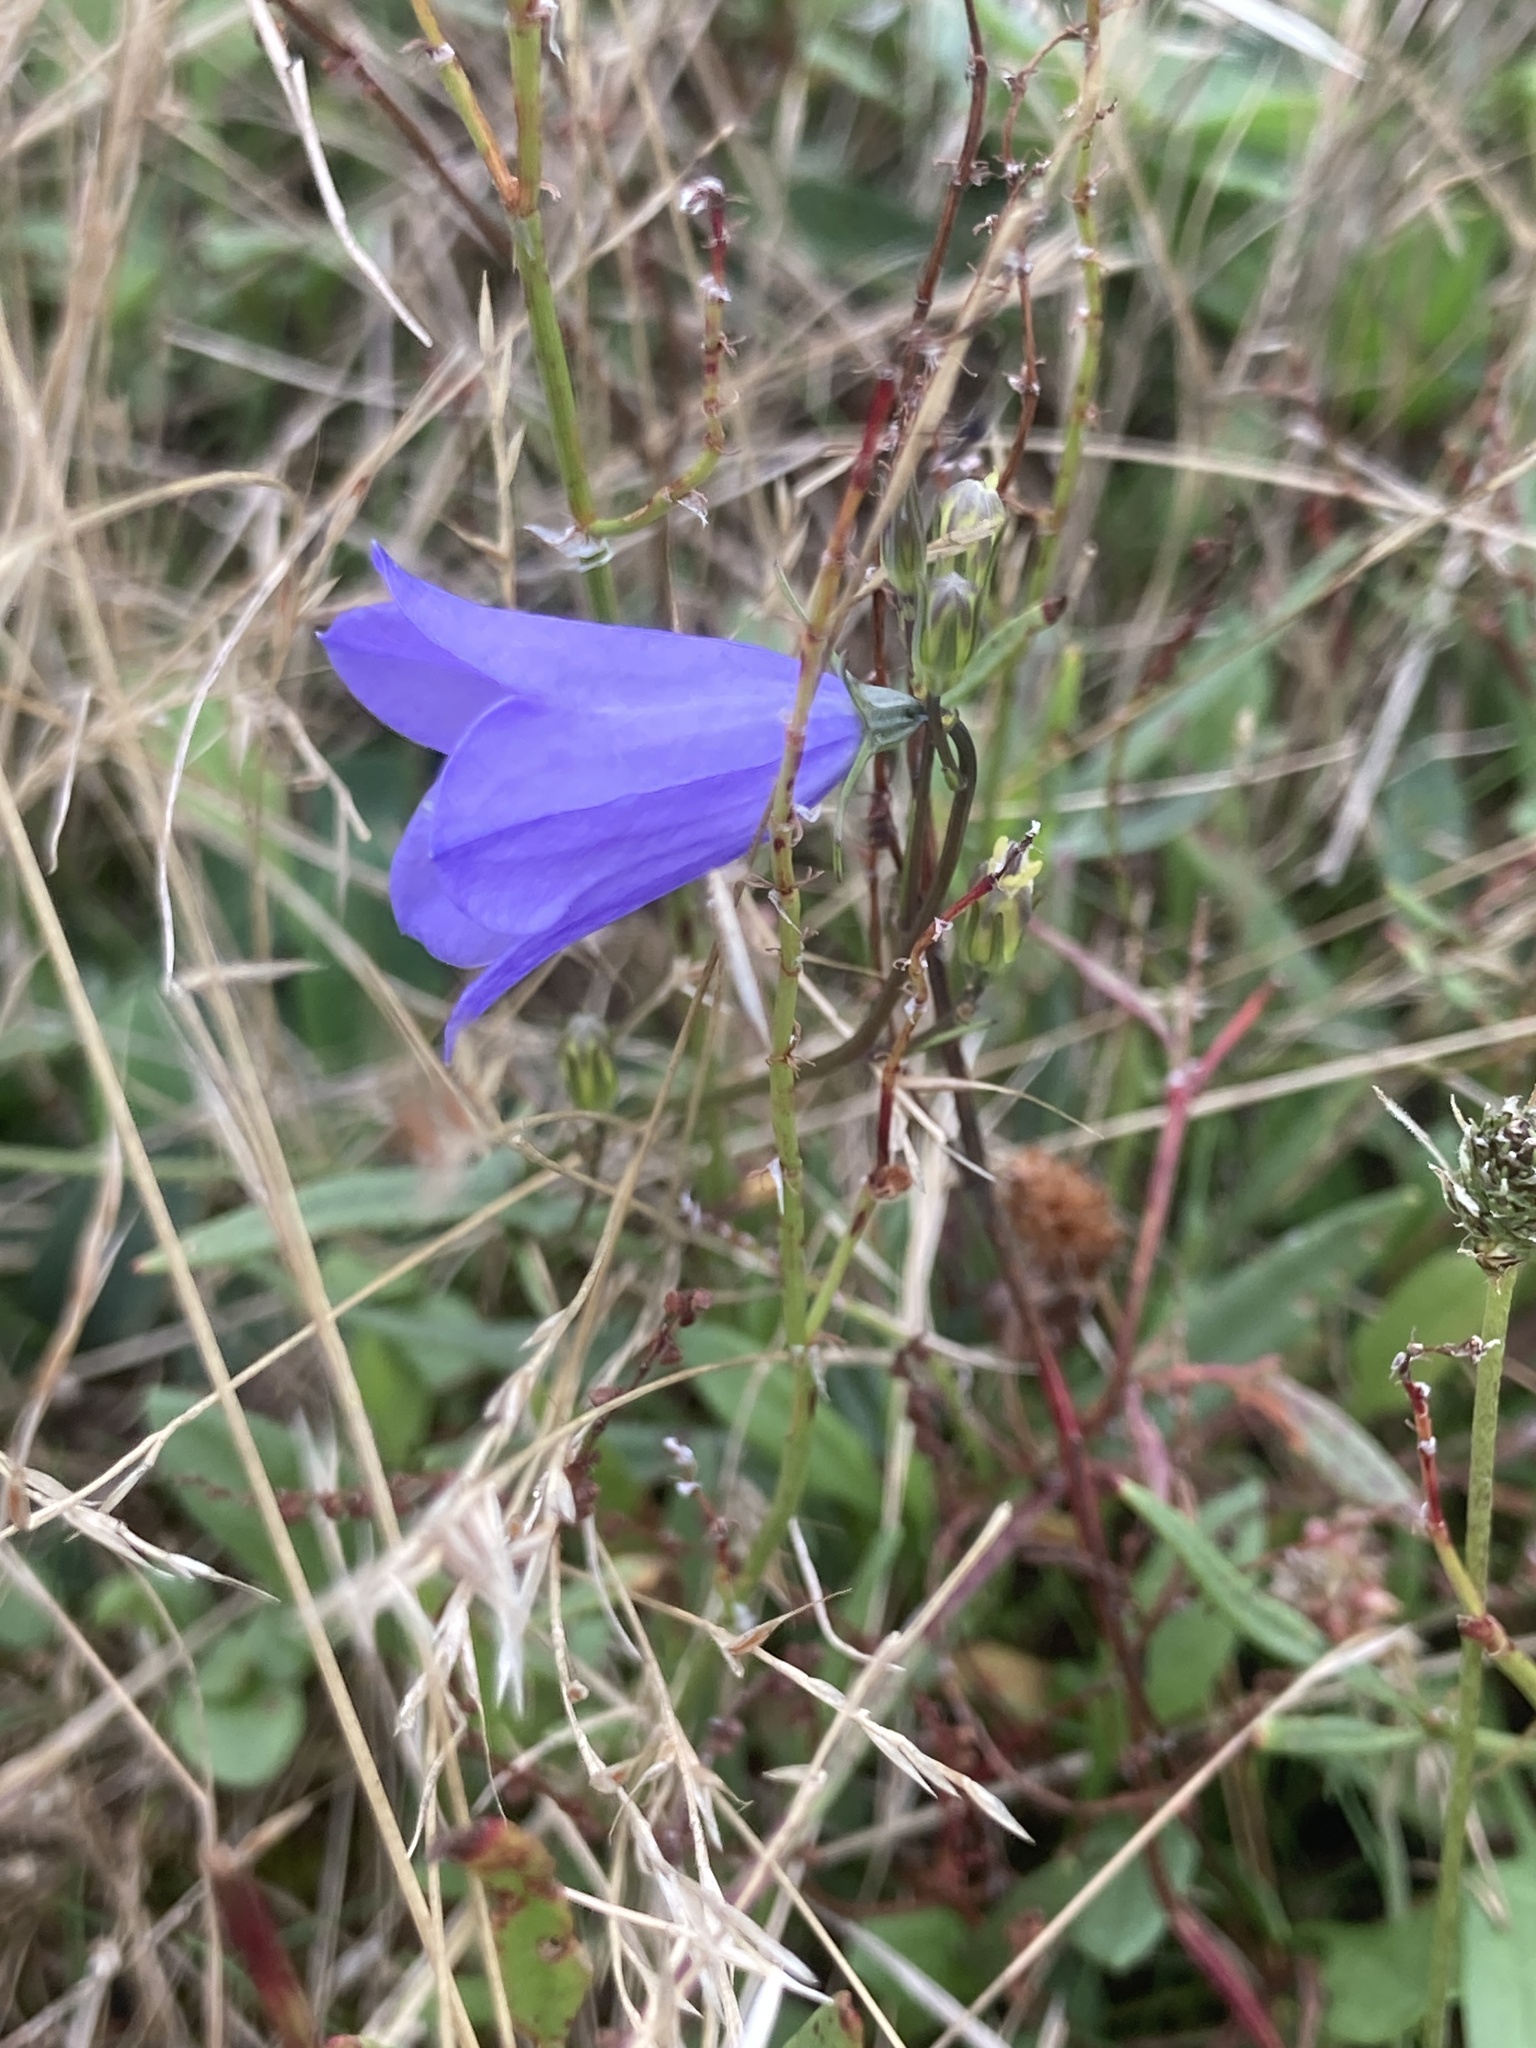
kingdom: Plantae
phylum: Tracheophyta
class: Magnoliopsida
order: Asterales
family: Campanulaceae
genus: Campanula
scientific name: Campanula rotundifolia
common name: Harebell
